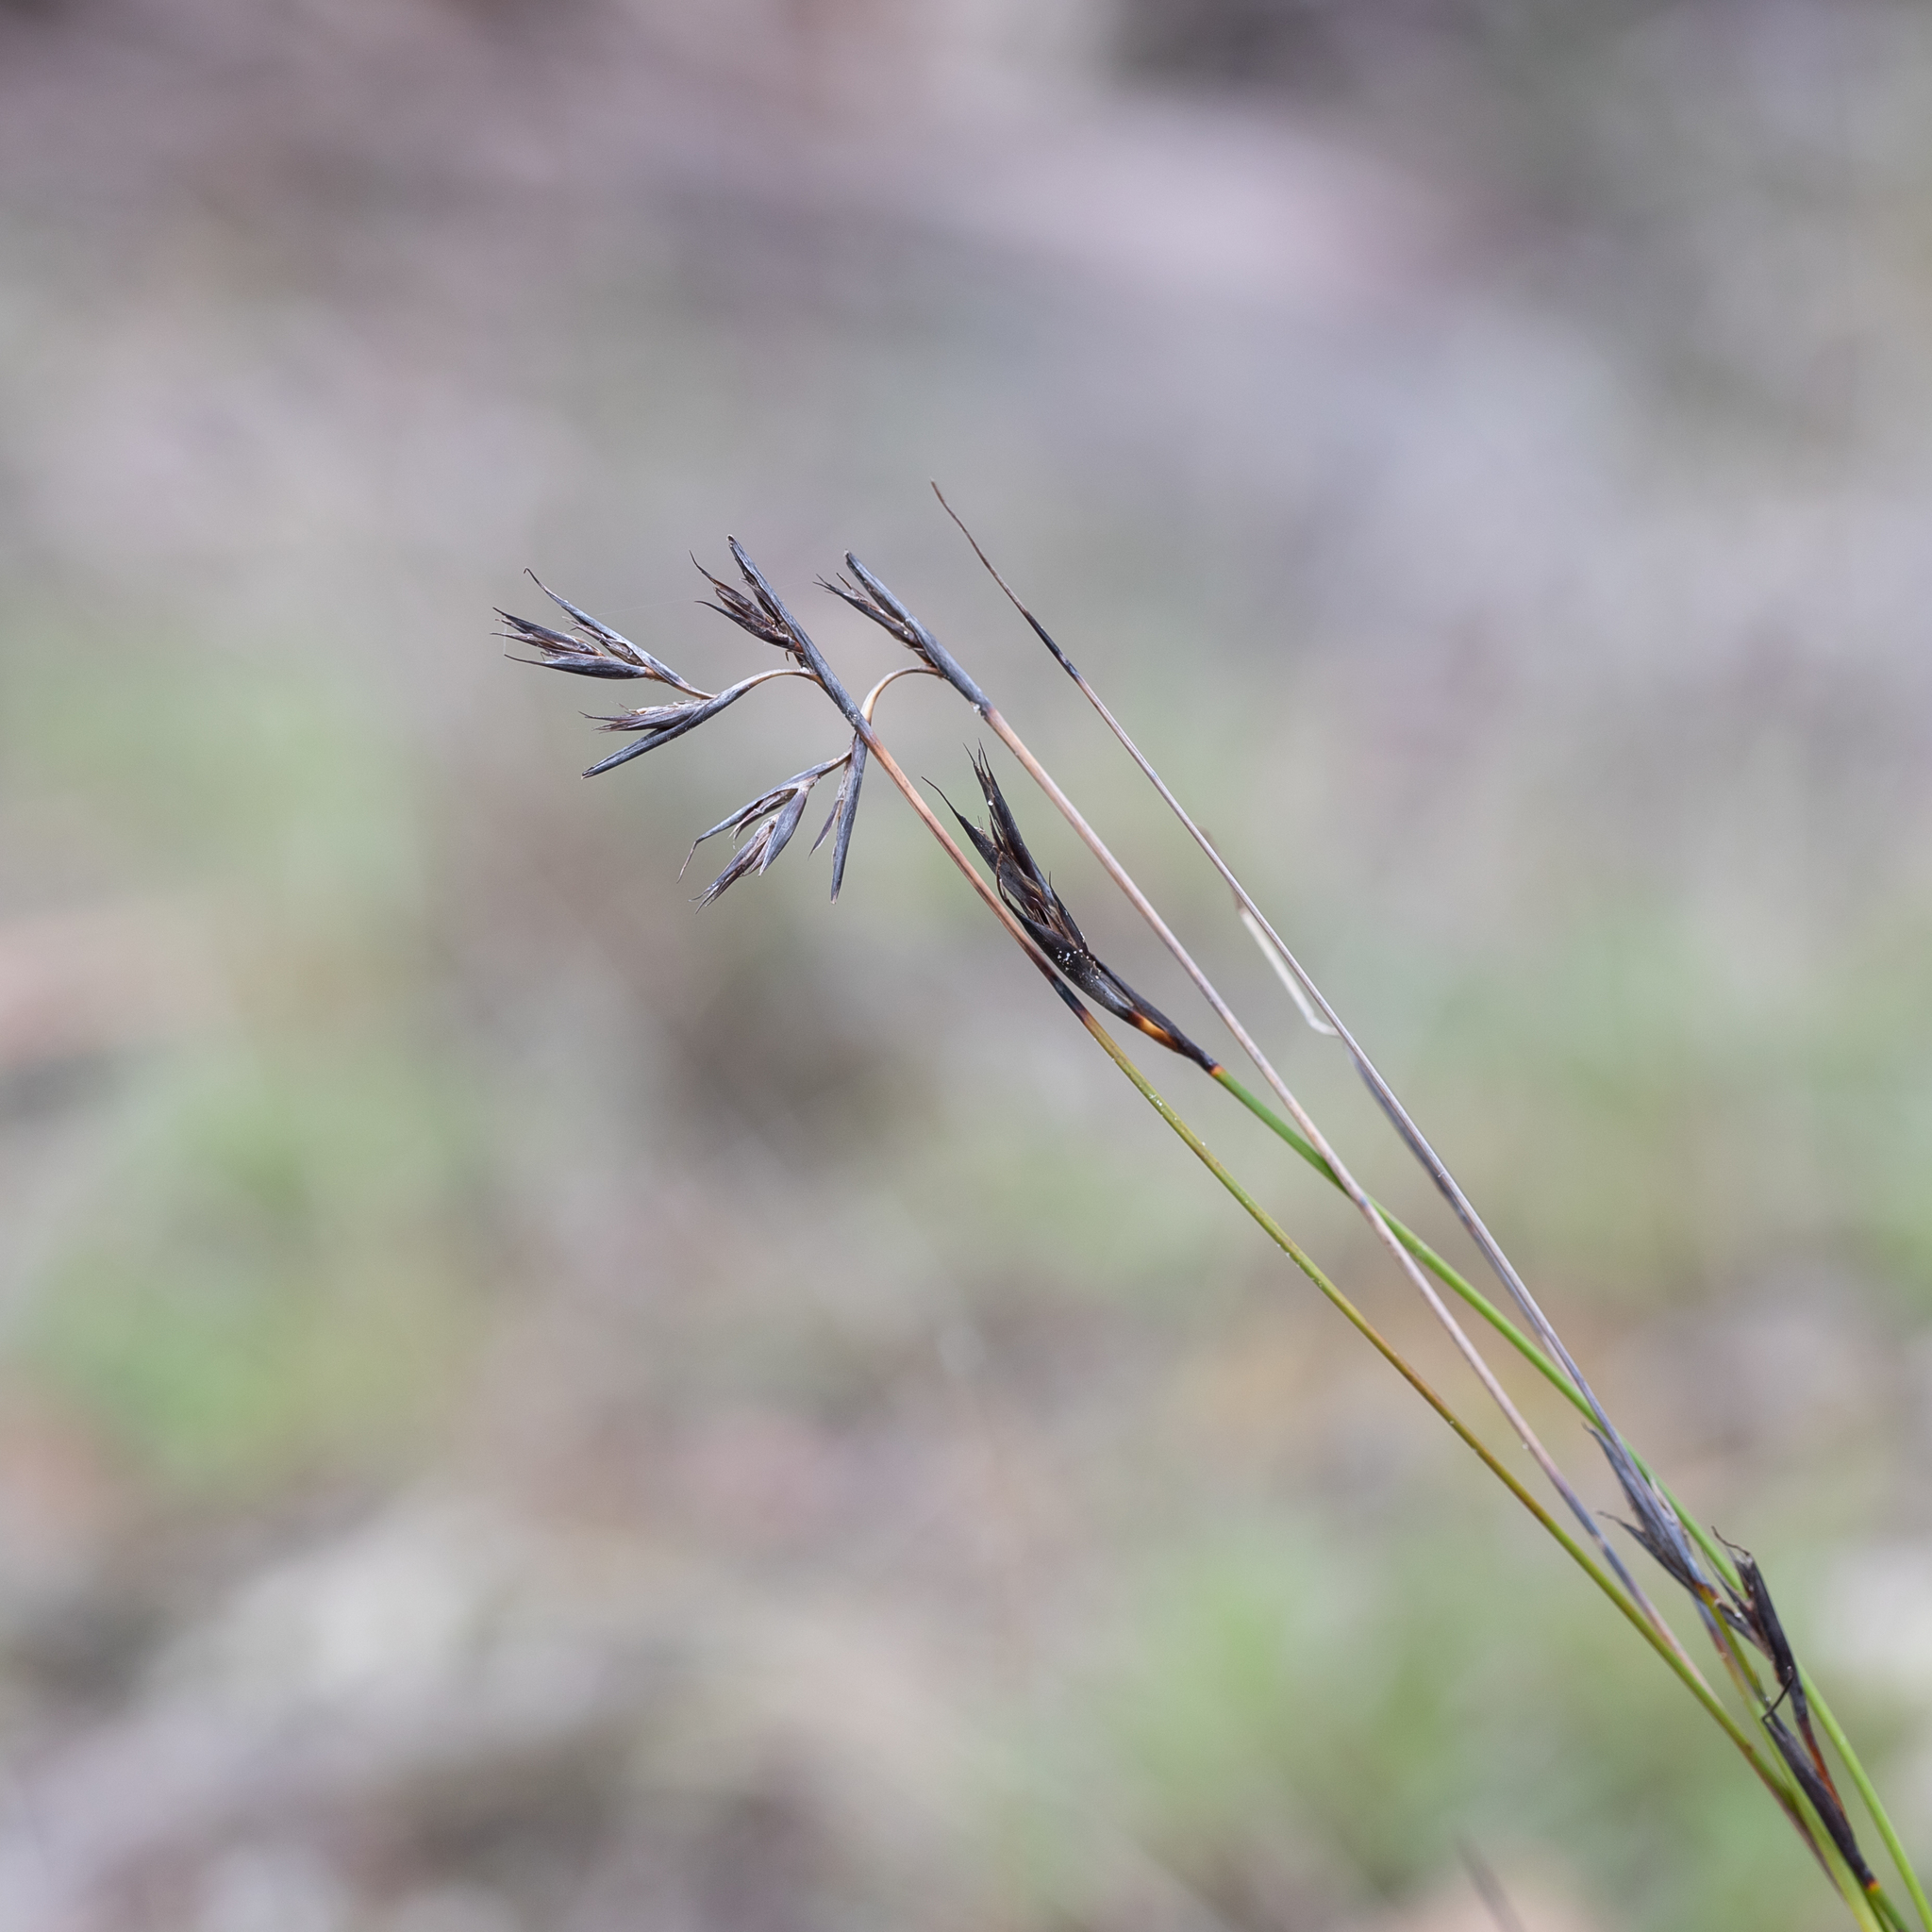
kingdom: Plantae
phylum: Tracheophyta
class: Liliopsida
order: Poales
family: Cyperaceae
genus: Lepidosperma
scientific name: Lepidosperma carphoides
